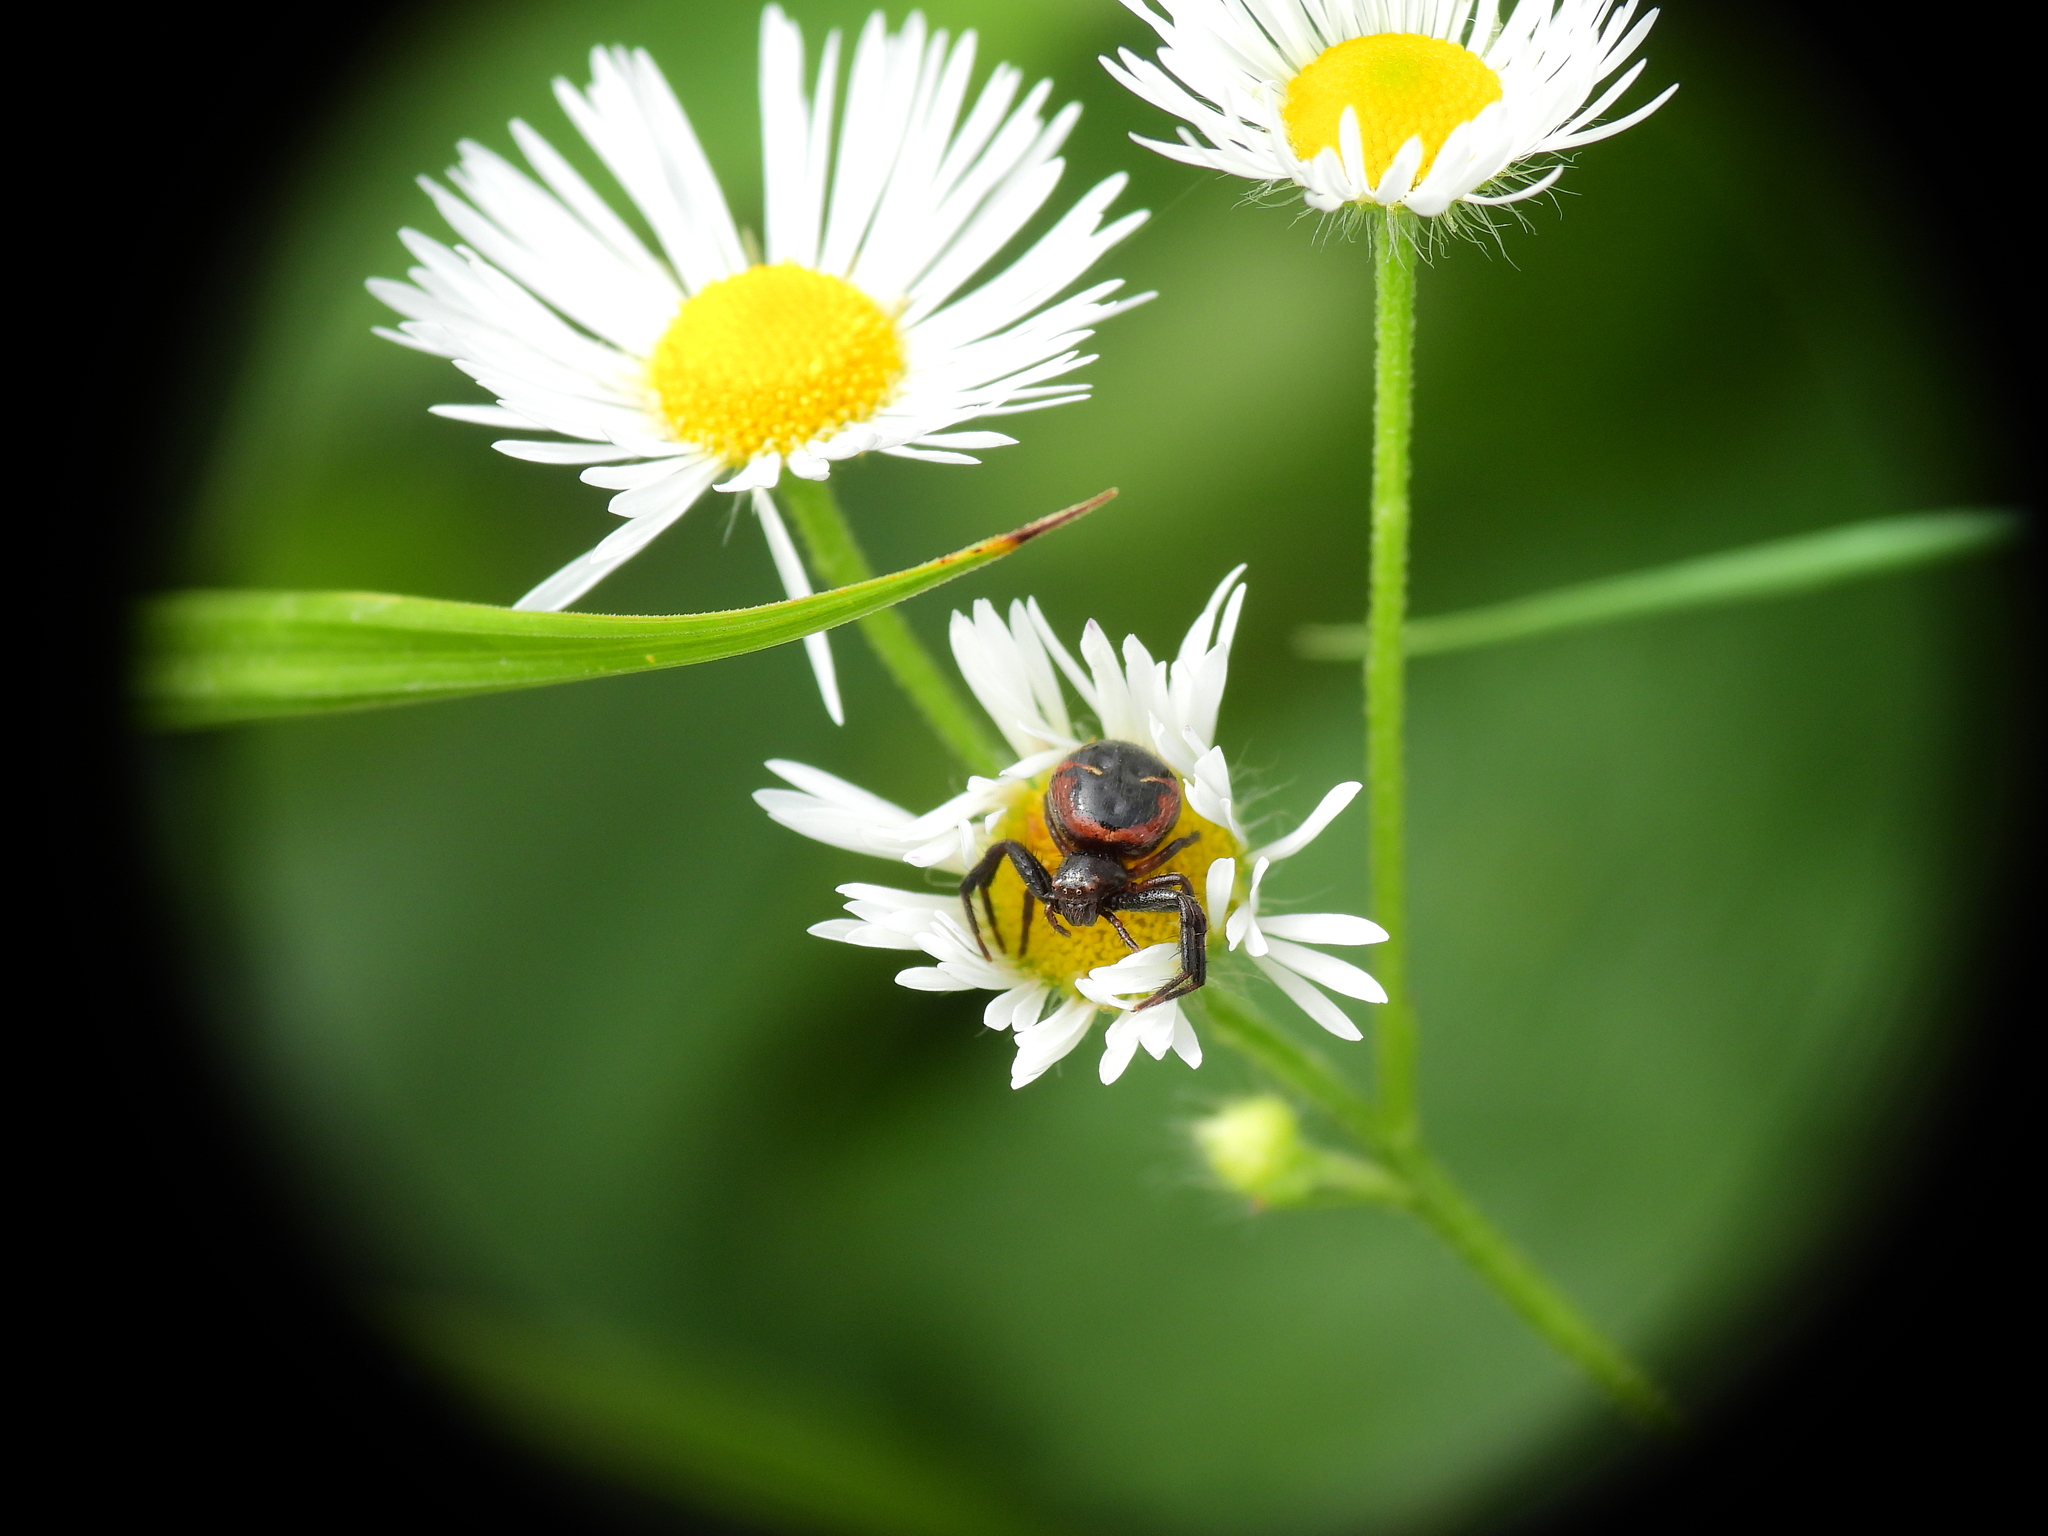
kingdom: Animalia
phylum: Arthropoda
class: Arachnida
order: Araneae
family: Thomisidae
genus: Synema
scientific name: Synema globosum
